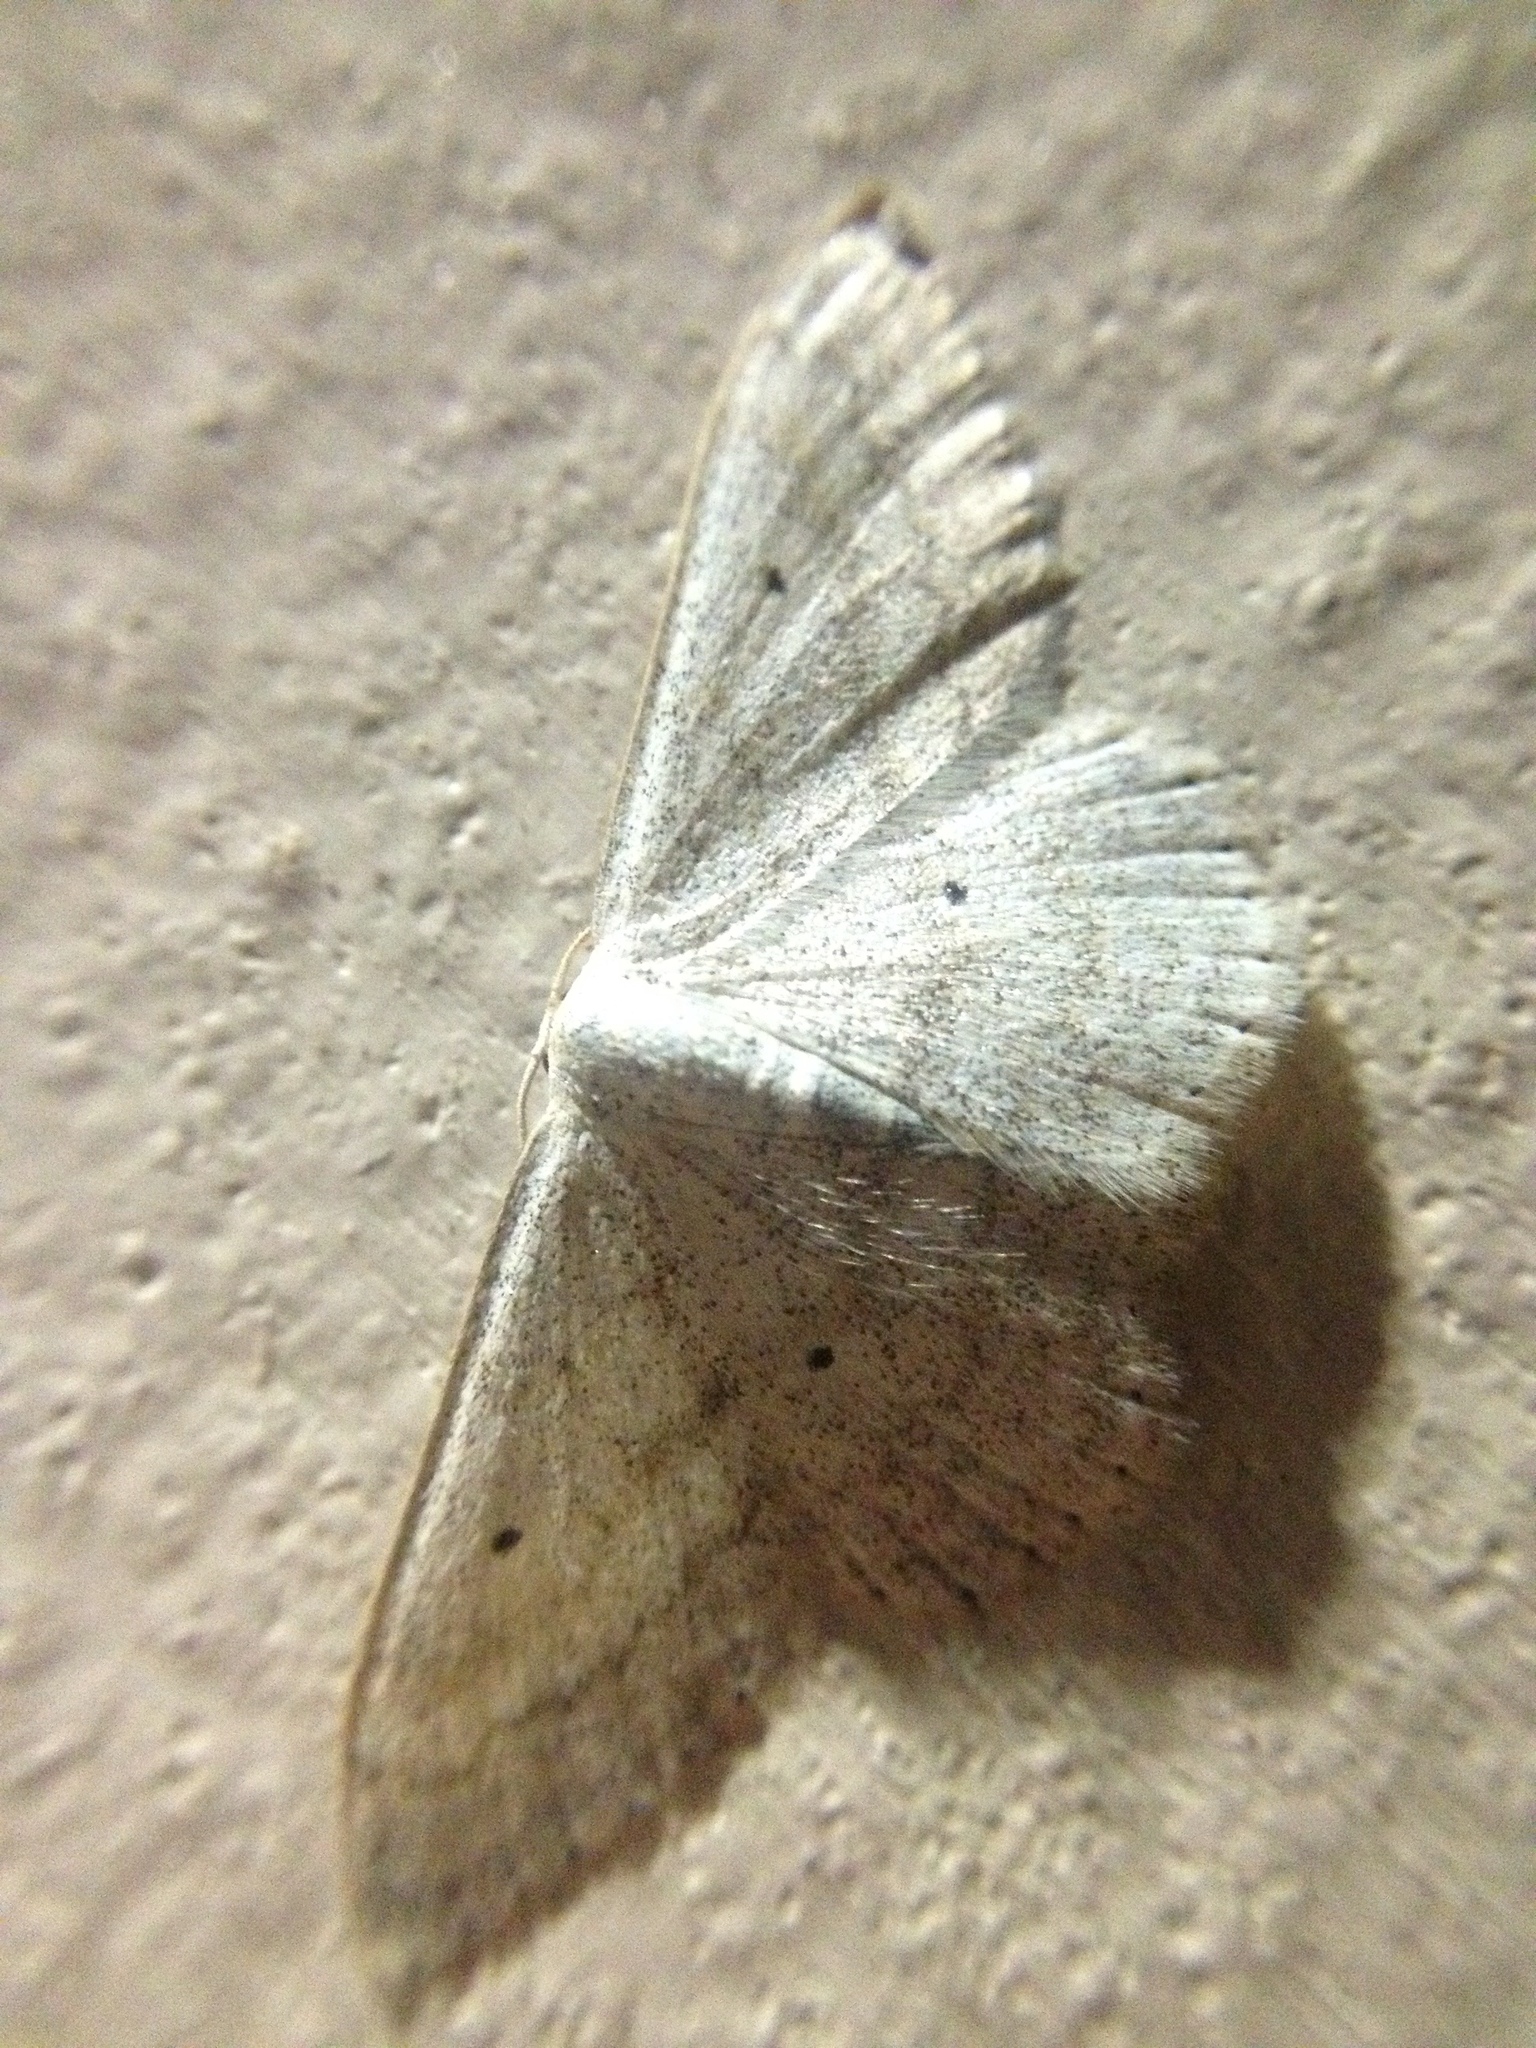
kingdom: Animalia
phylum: Arthropoda
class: Insecta
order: Lepidoptera
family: Geometridae
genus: Scopula
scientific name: Scopula incanata
